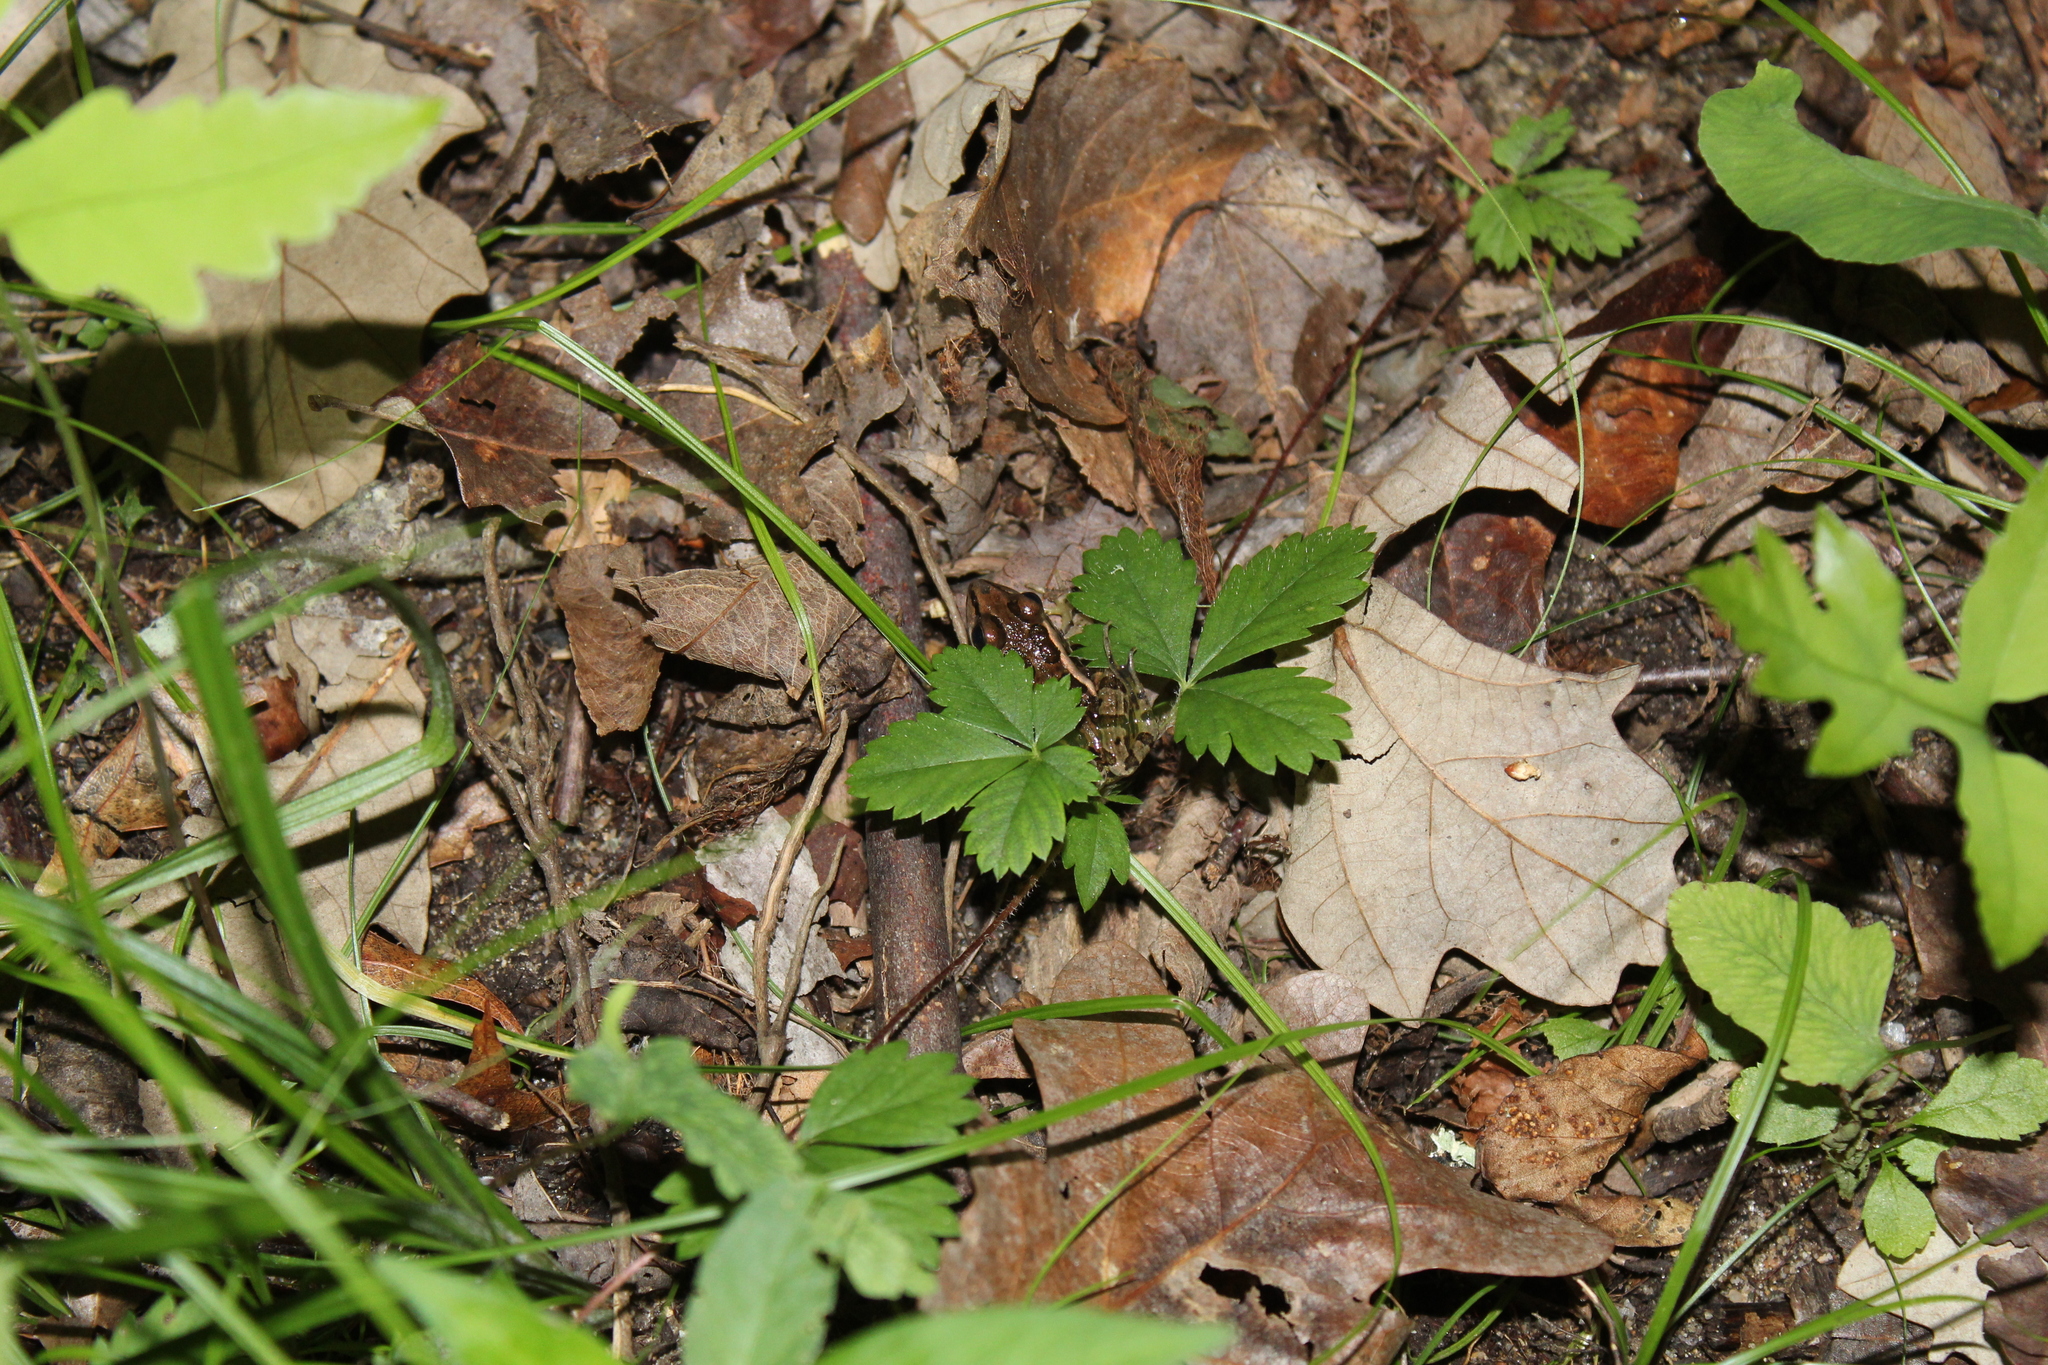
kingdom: Animalia
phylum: Chordata
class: Amphibia
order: Anura
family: Ranidae
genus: Lithobates
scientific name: Lithobates palustris
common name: Pickerel frog
